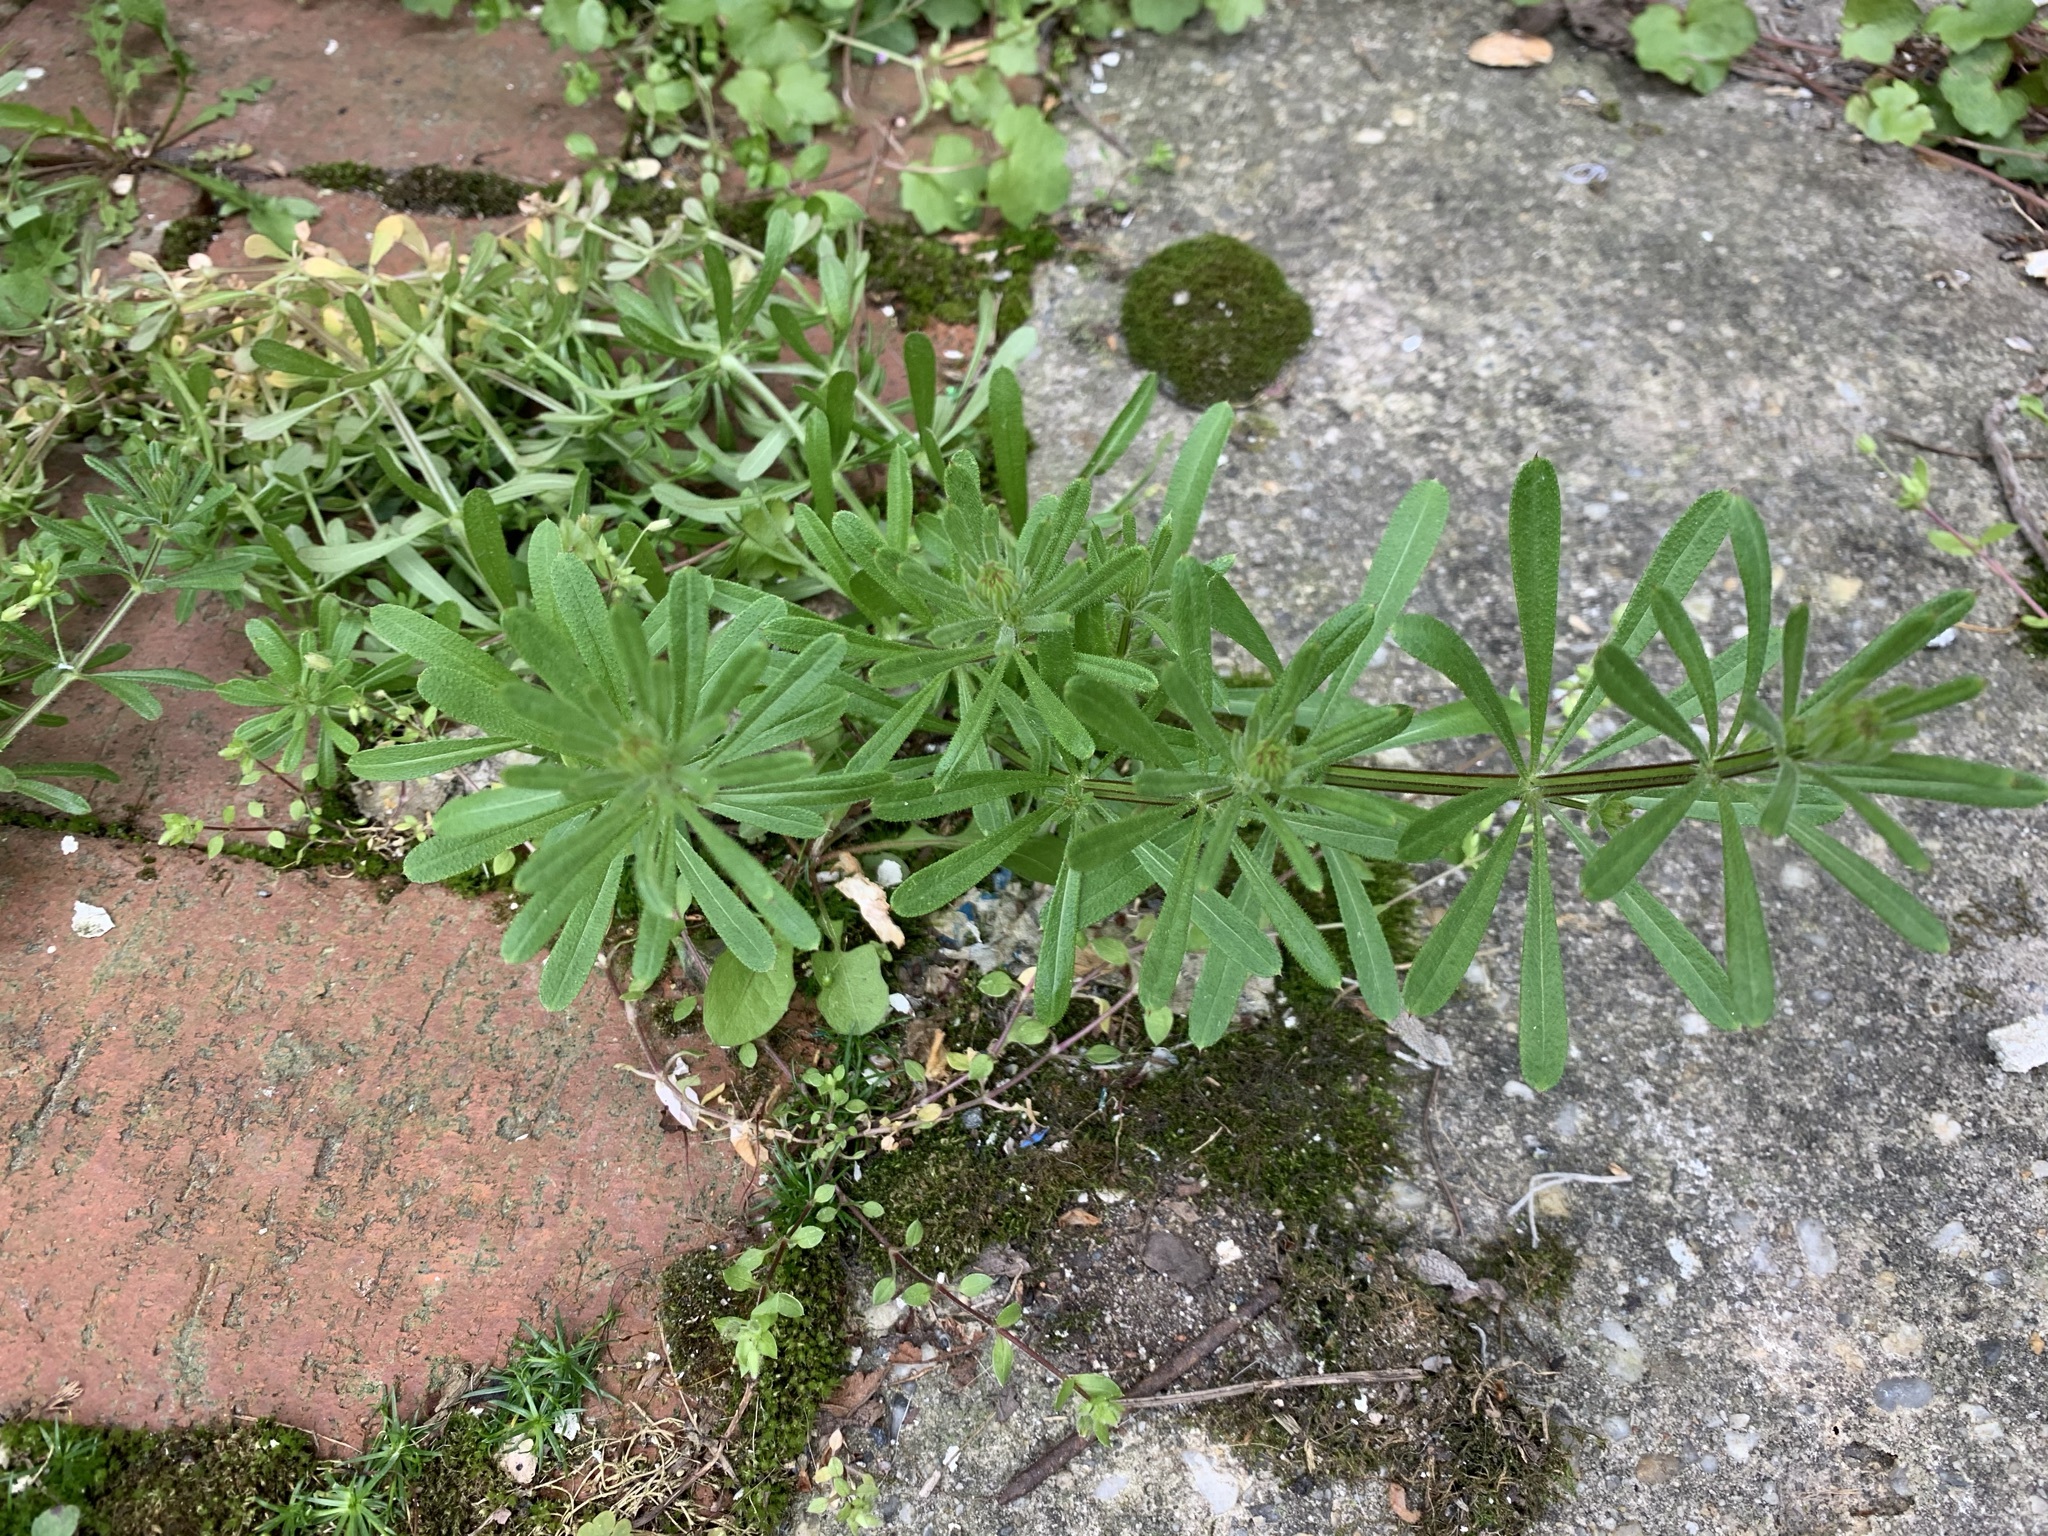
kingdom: Plantae
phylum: Tracheophyta
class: Magnoliopsida
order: Gentianales
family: Rubiaceae
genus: Galium
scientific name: Galium aparine
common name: Cleavers
